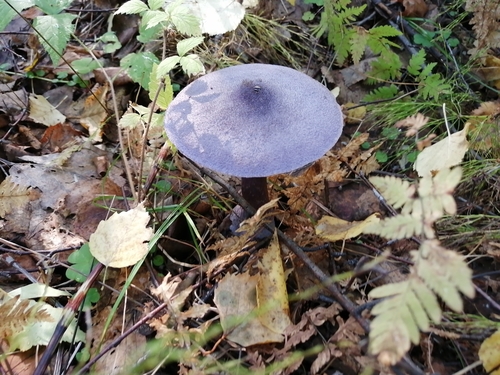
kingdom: Fungi
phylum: Basidiomycota
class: Agaricomycetes
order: Agaricales
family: Cortinariaceae
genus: Cortinarius
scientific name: Cortinarius violaceus
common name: Violet webcap
